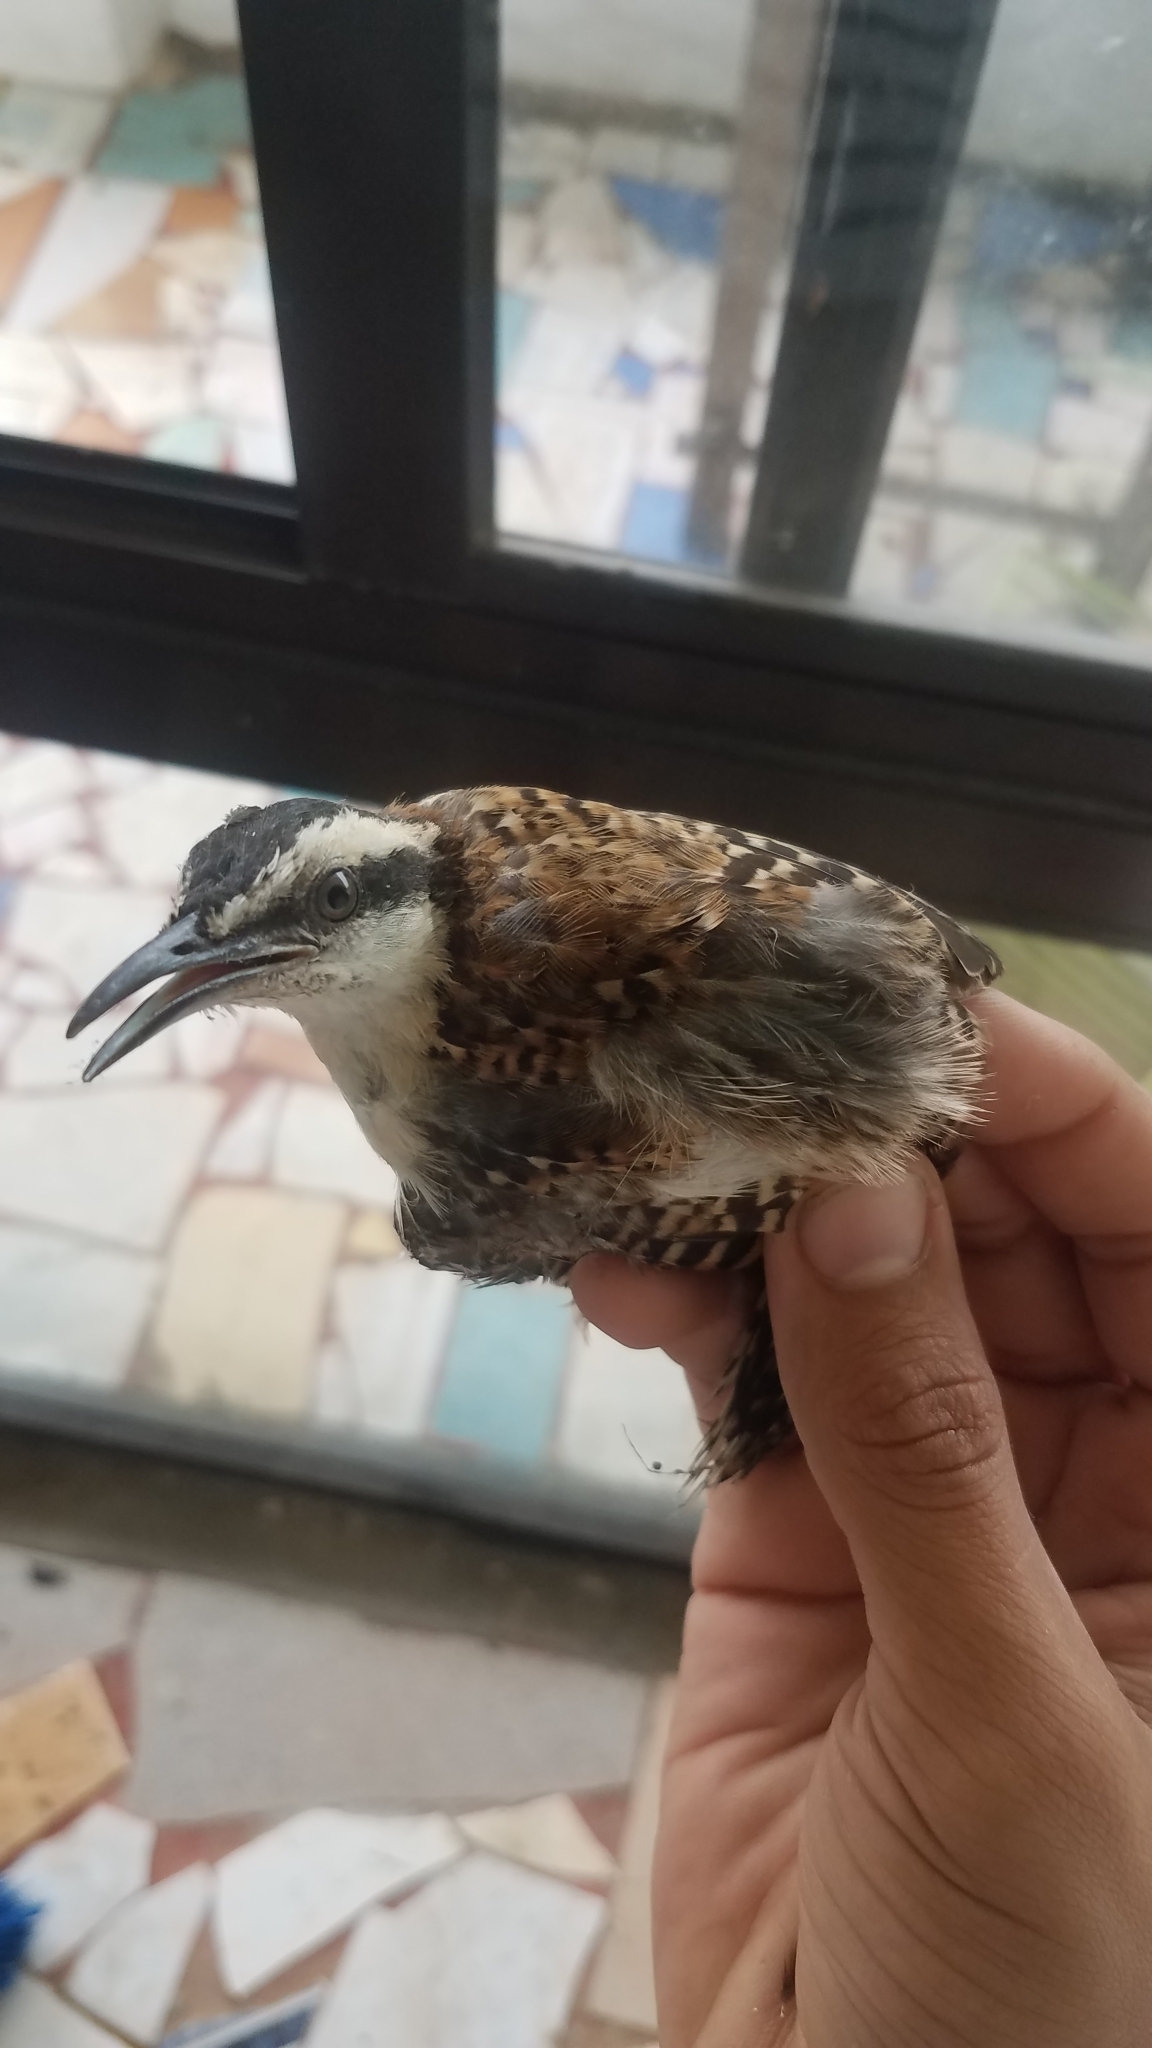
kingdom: Animalia
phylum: Chordata
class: Aves
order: Passeriformes
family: Troglodytidae
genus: Campylorhynchus
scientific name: Campylorhynchus rufinucha
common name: Rufous-naped wren
